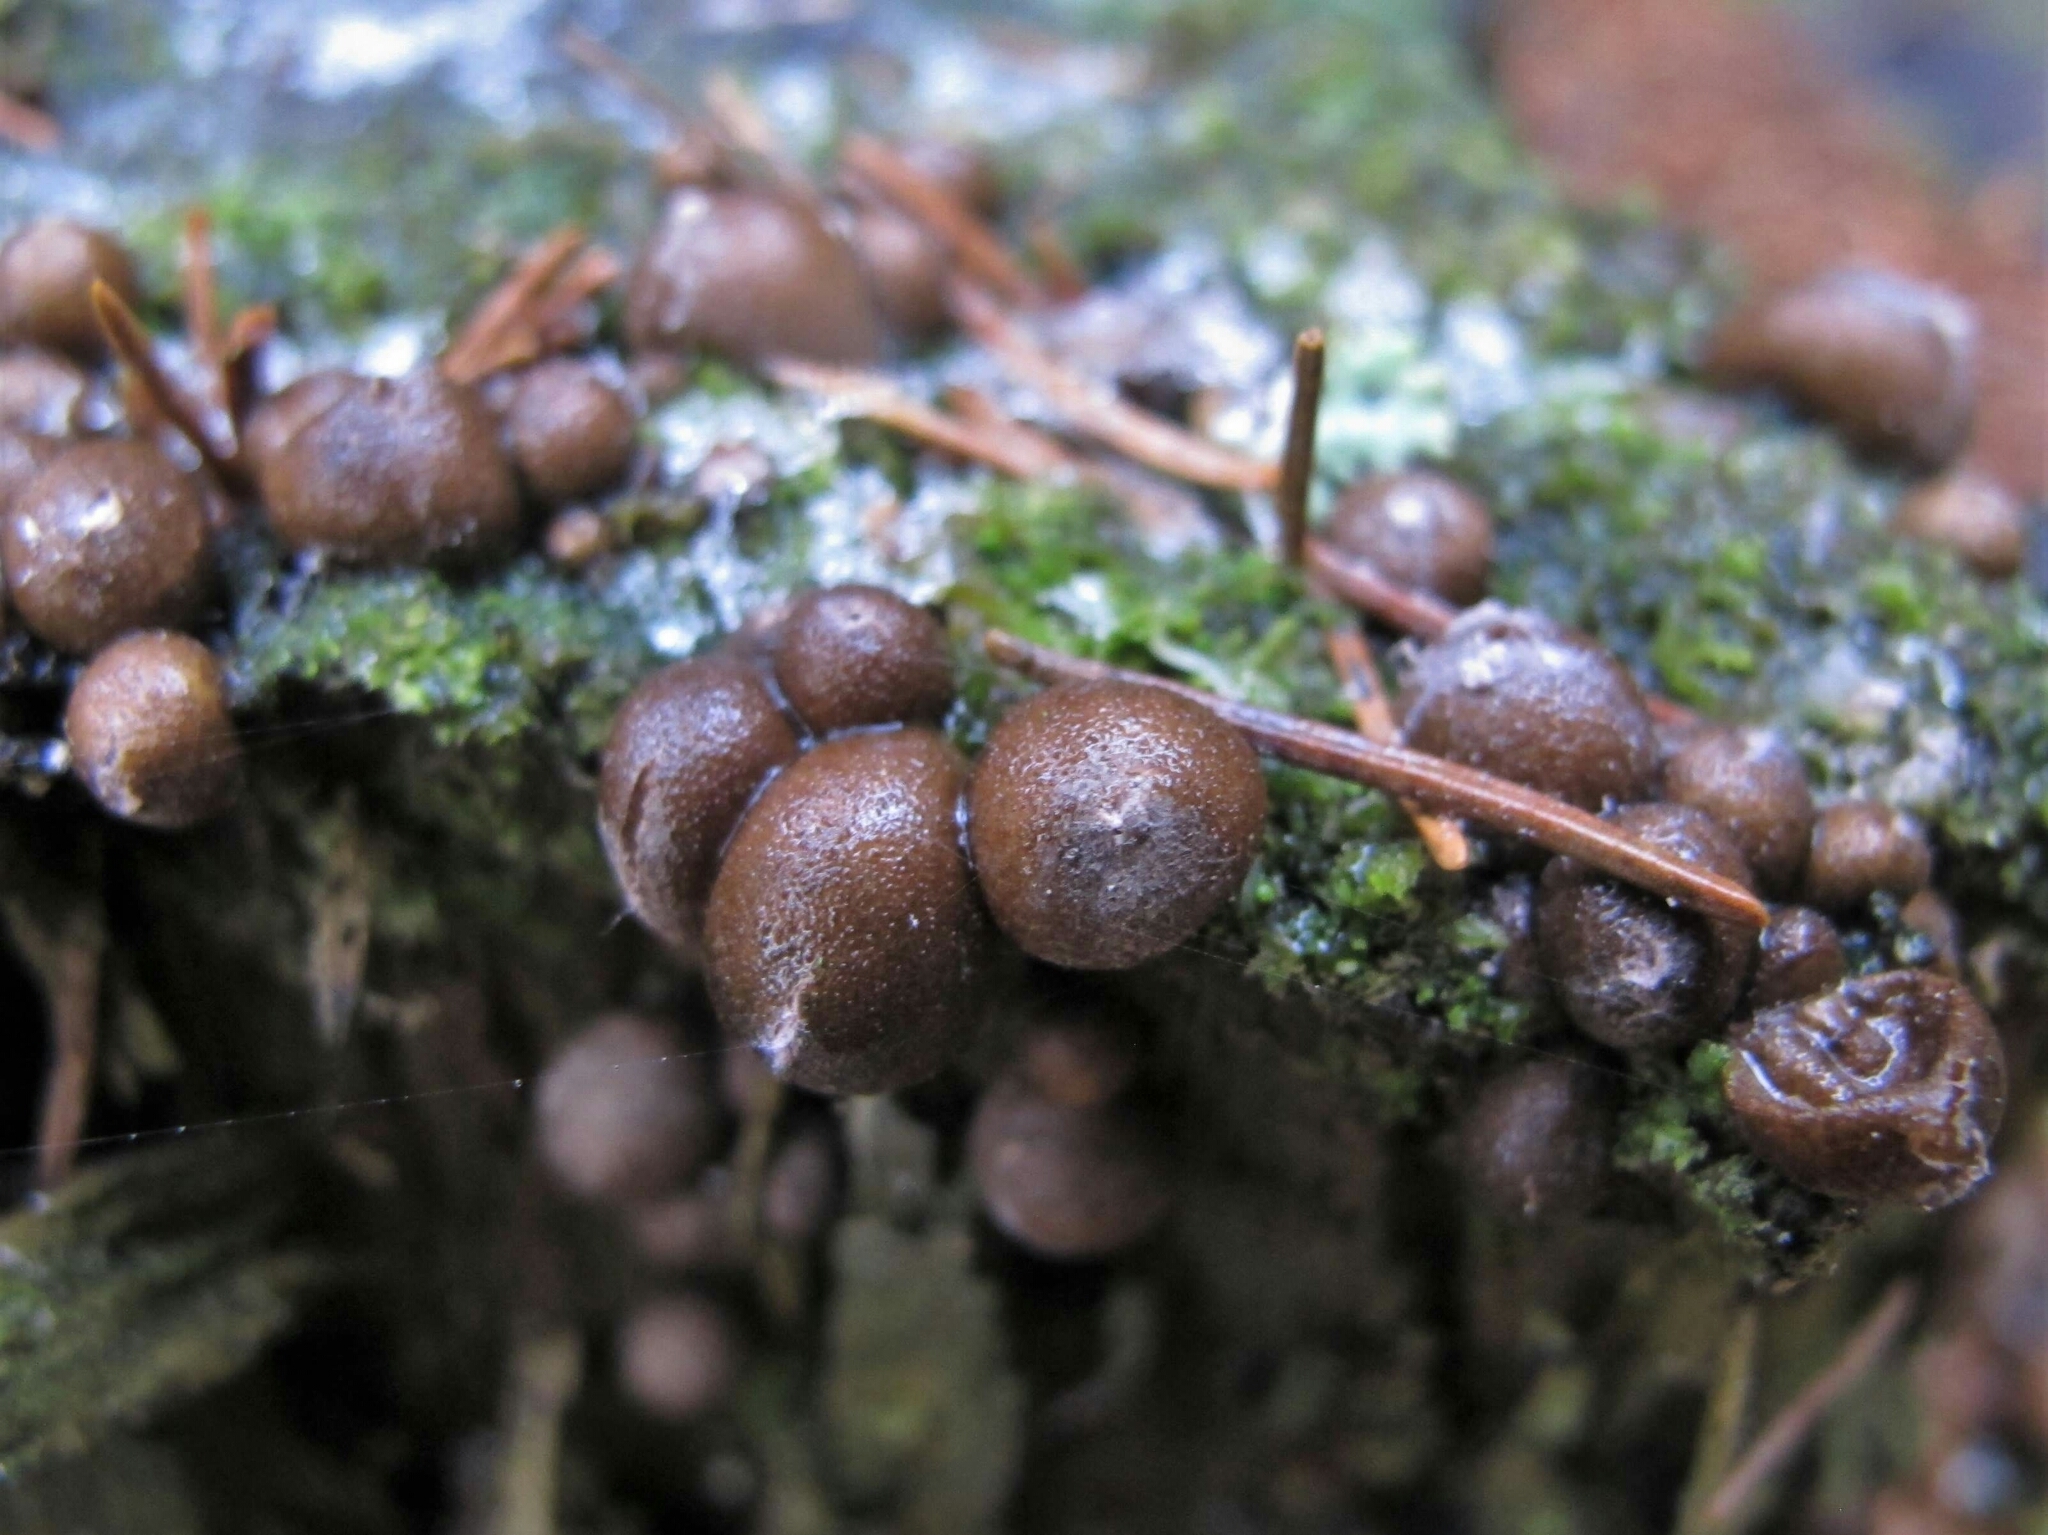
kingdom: Protozoa
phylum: Mycetozoa
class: Myxomycetes
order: Cribrariales
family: Tubiferaceae
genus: Lycogala
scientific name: Lycogala epidendrum
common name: Wolf's milk
